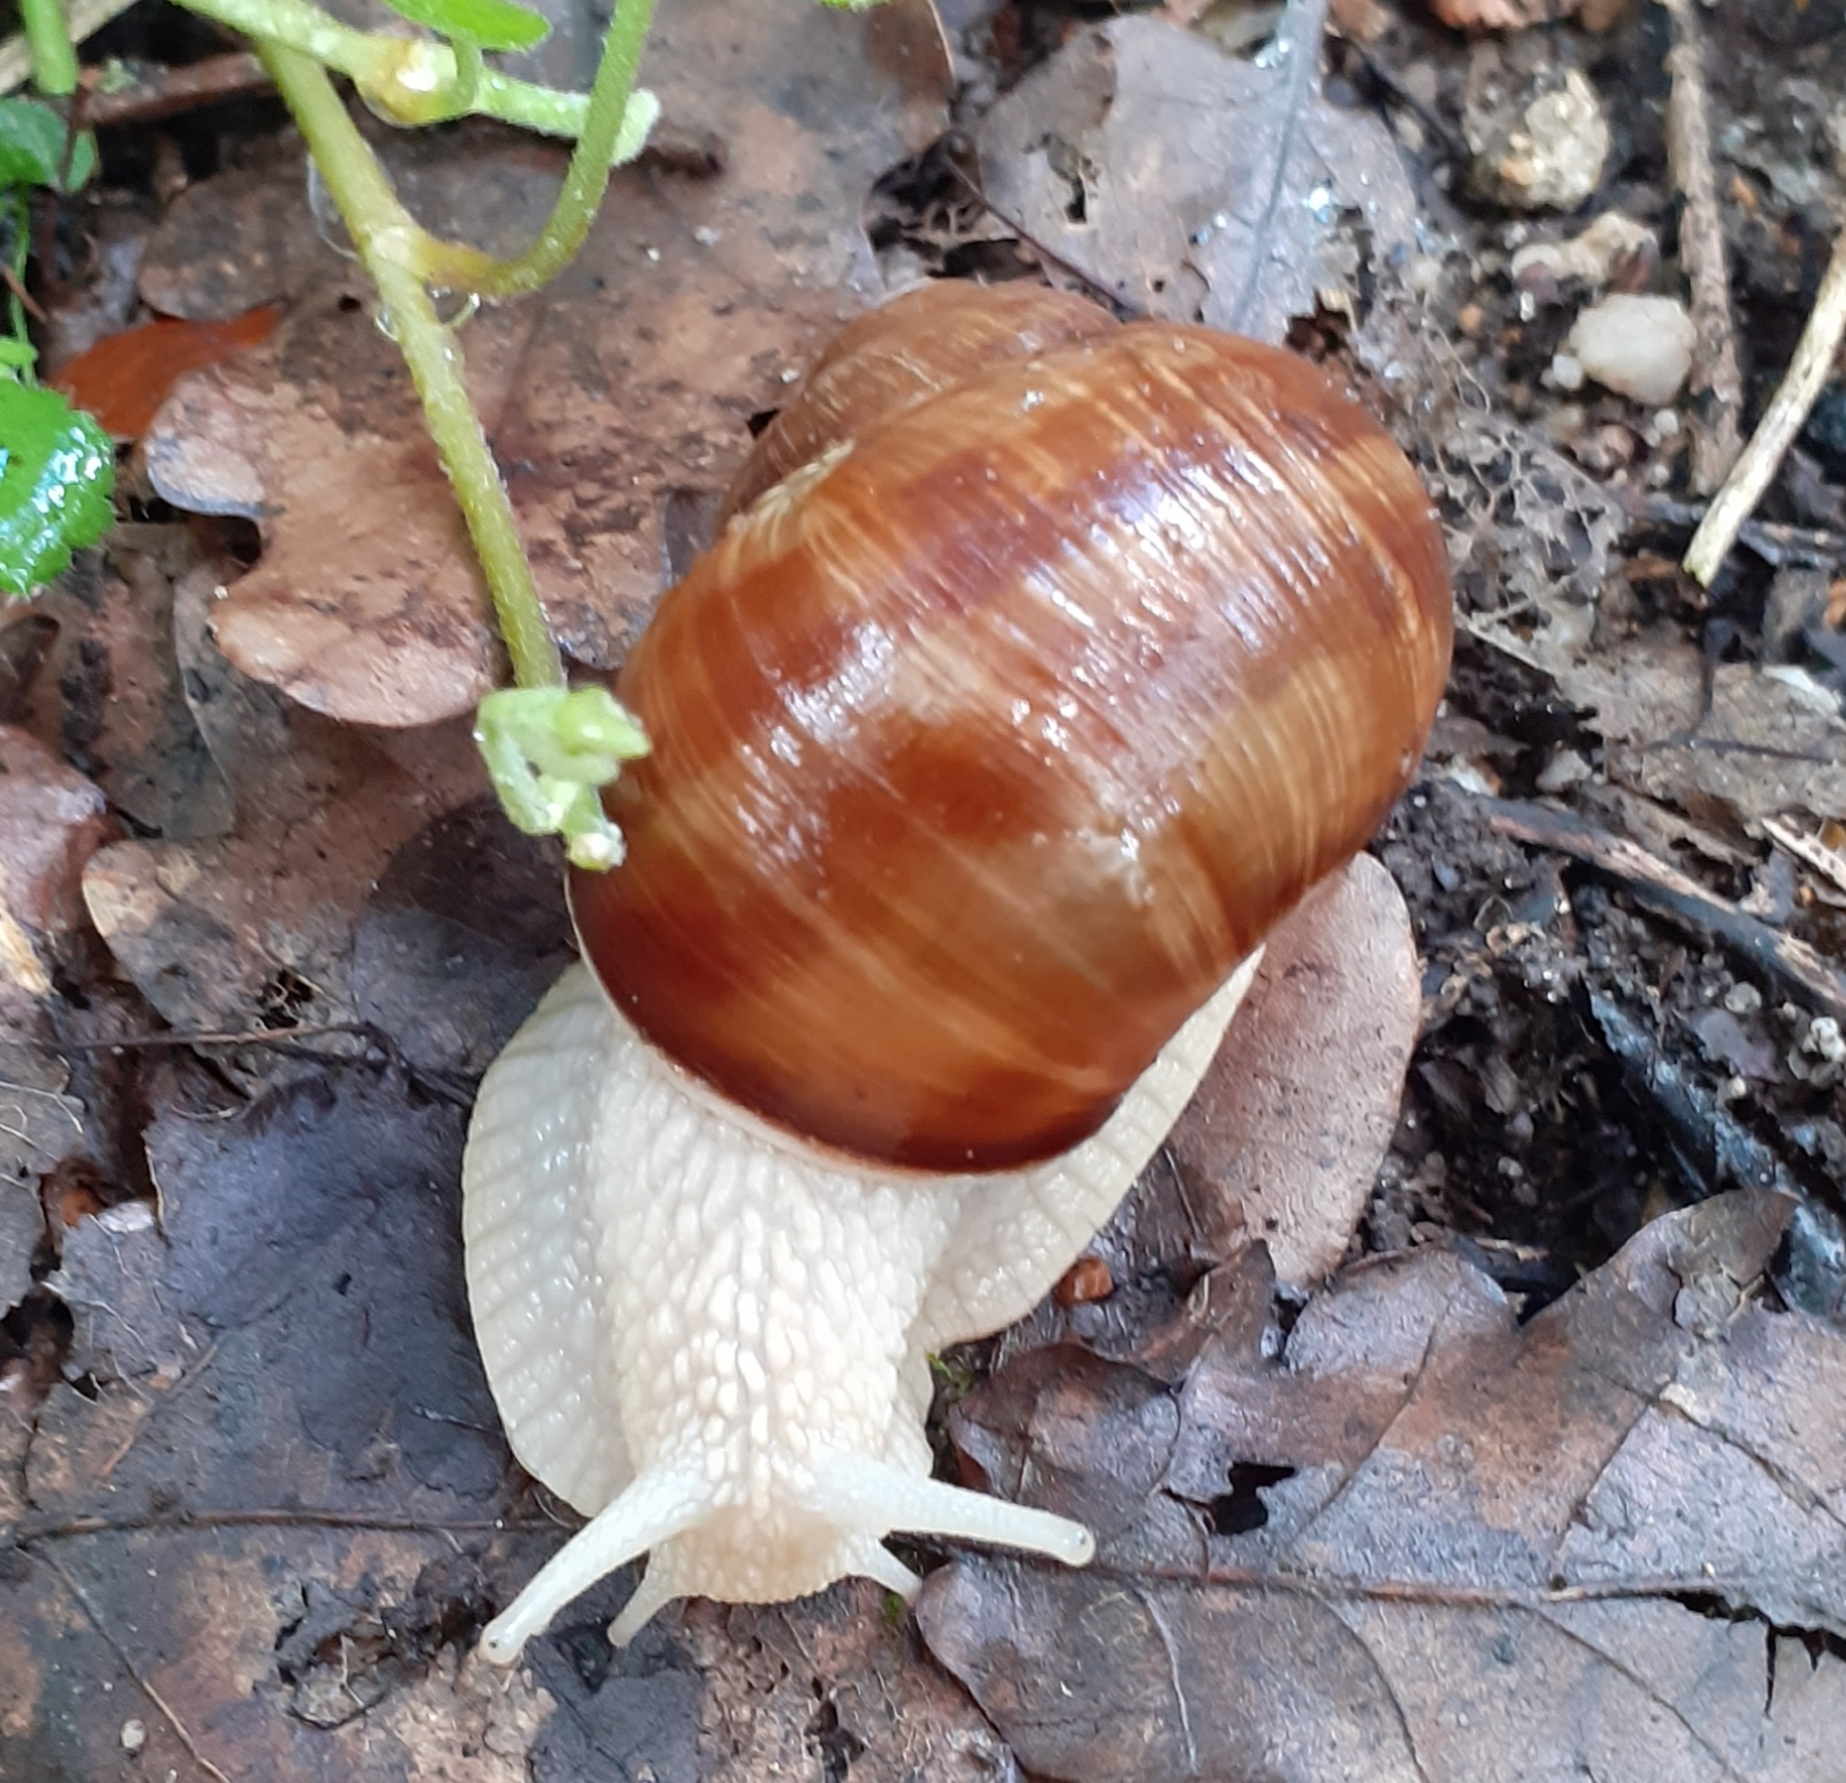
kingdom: Animalia
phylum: Mollusca
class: Gastropoda
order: Stylommatophora
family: Helicidae
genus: Helix
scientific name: Helix pomatia
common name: Roman snail
